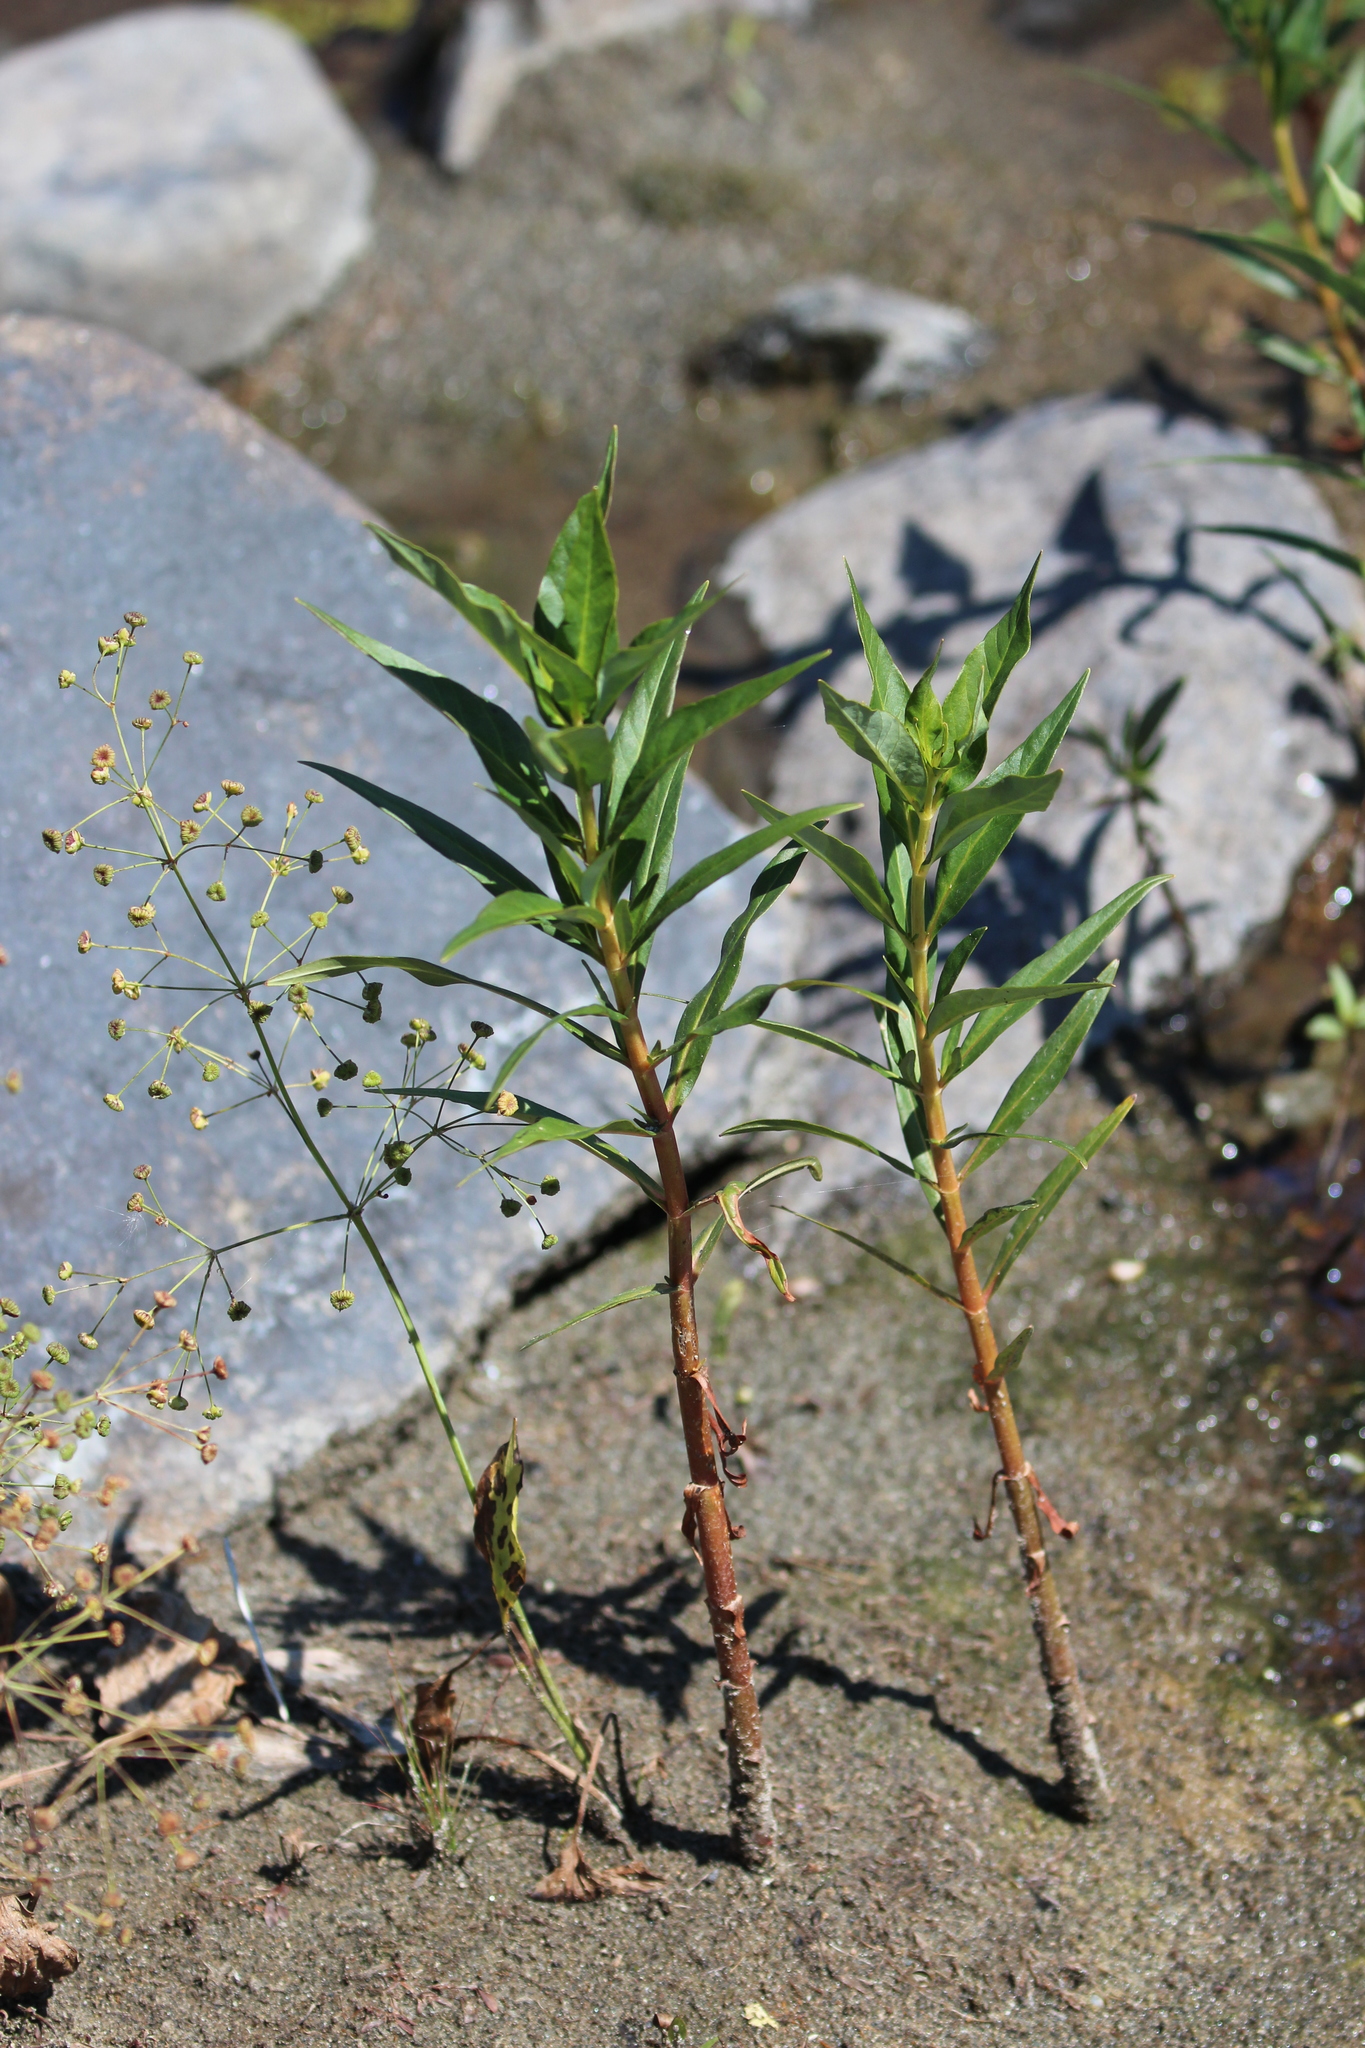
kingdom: Plantae
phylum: Tracheophyta
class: Magnoliopsida
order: Ericales
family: Primulaceae
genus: Lysimachia
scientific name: Lysimachia terrestris
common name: Lake loosestrife
